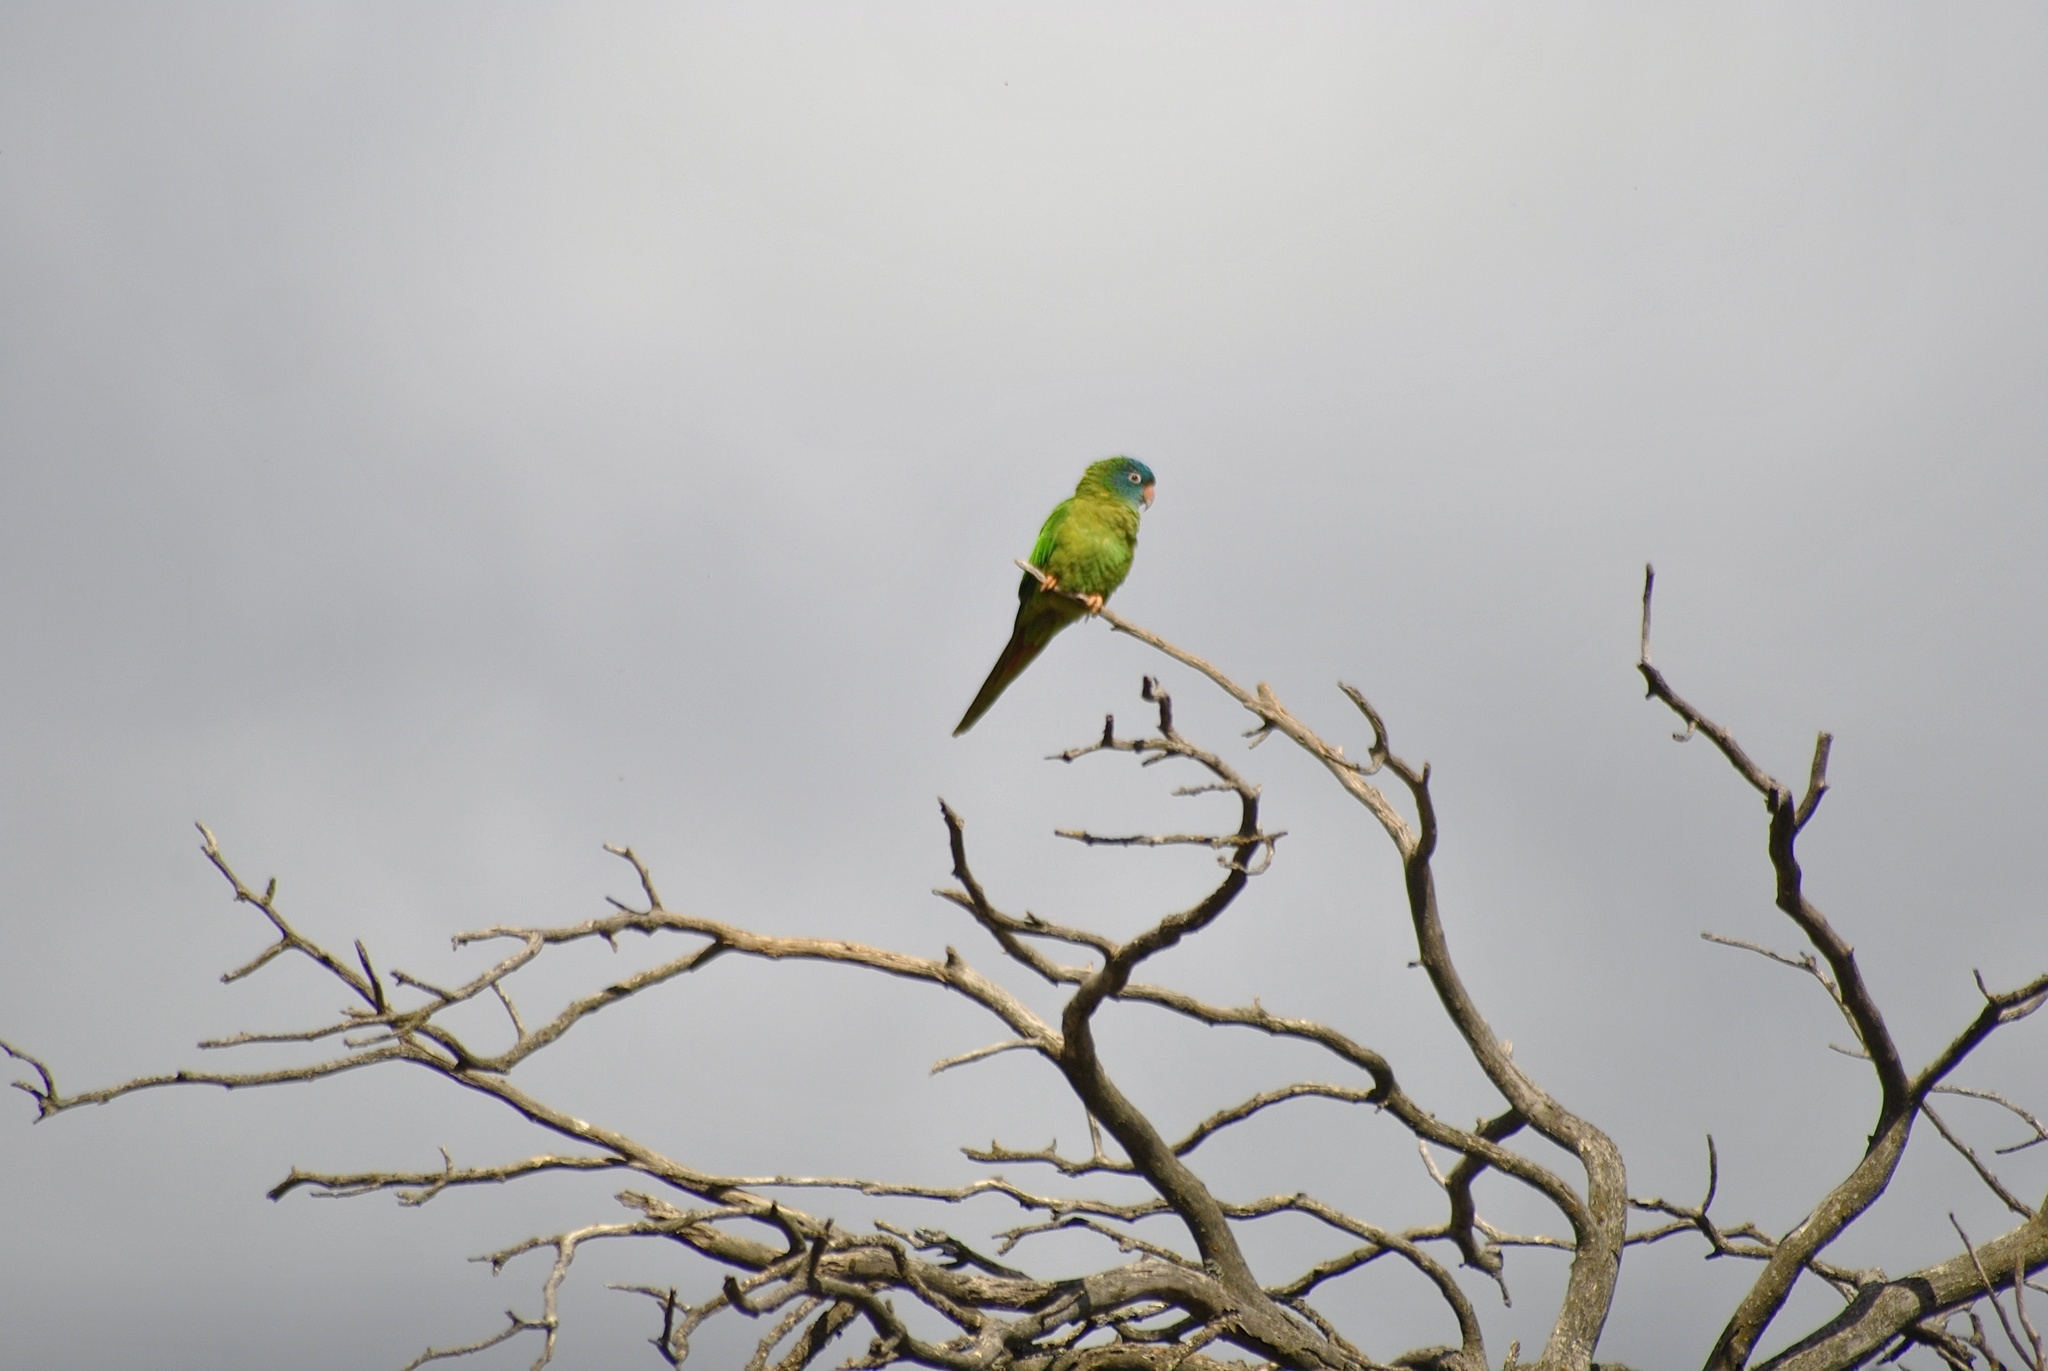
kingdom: Animalia
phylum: Chordata
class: Aves
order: Psittaciformes
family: Psittacidae
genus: Aratinga
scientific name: Aratinga acuticaudata
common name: Blue-crowned parakeet
